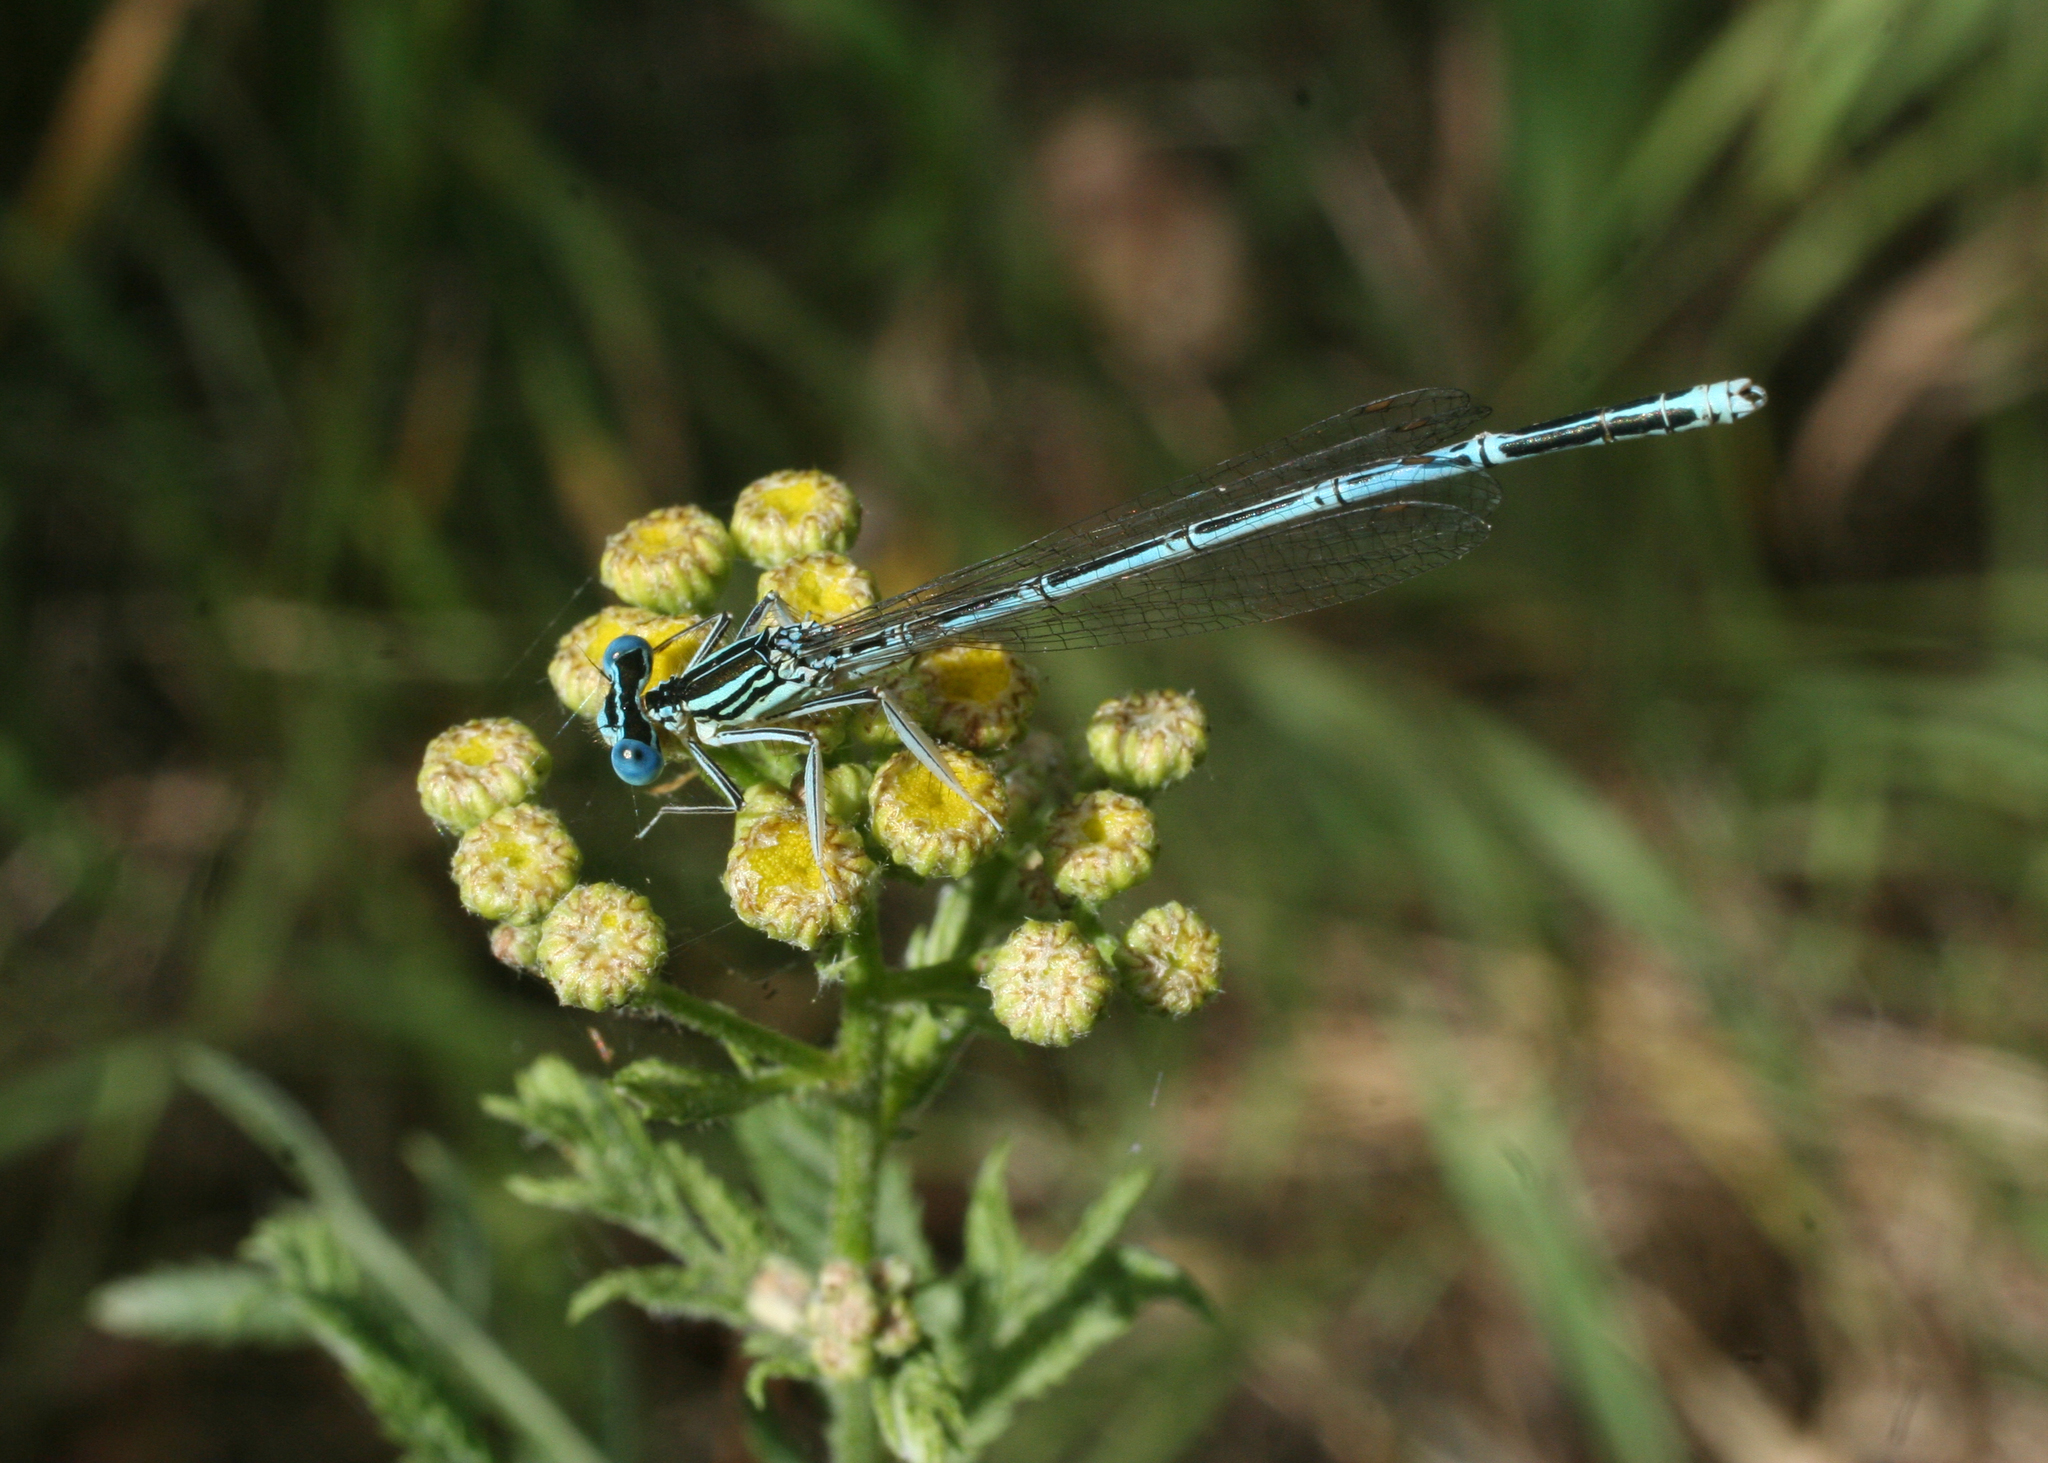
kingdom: Plantae
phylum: Tracheophyta
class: Magnoliopsida
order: Asterales
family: Asteraceae
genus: Tanacetum
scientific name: Tanacetum vulgare
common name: Common tansy
